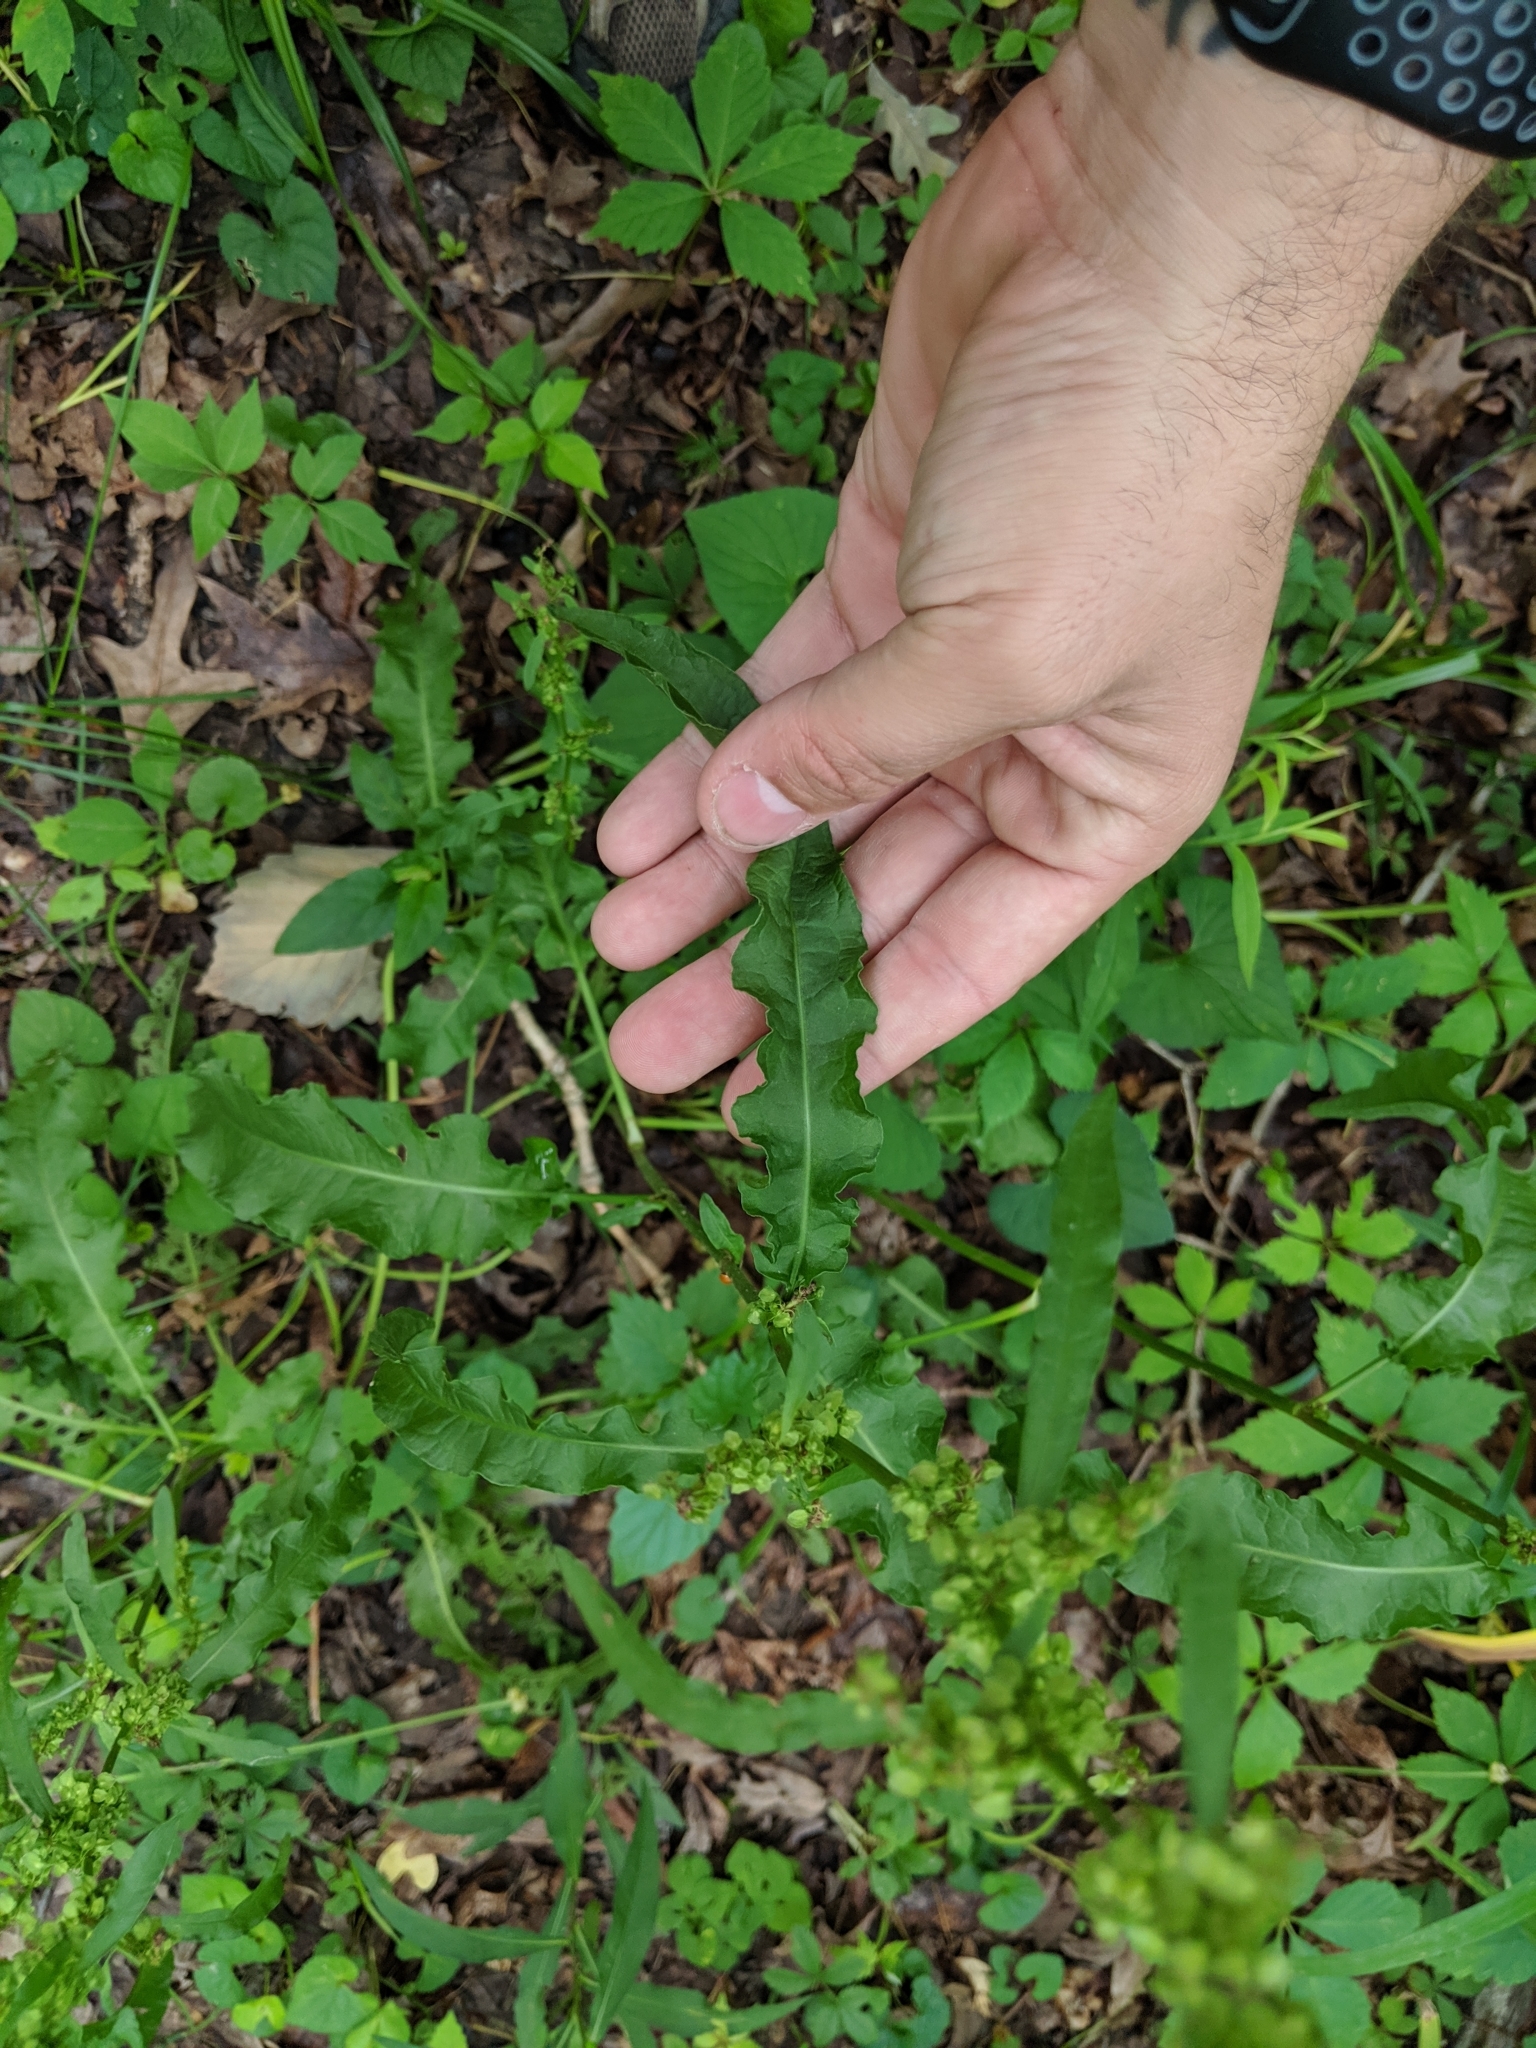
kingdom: Plantae
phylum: Tracheophyta
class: Magnoliopsida
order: Caryophyllales
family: Polygonaceae
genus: Rumex
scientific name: Rumex crispus
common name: Curled dock
